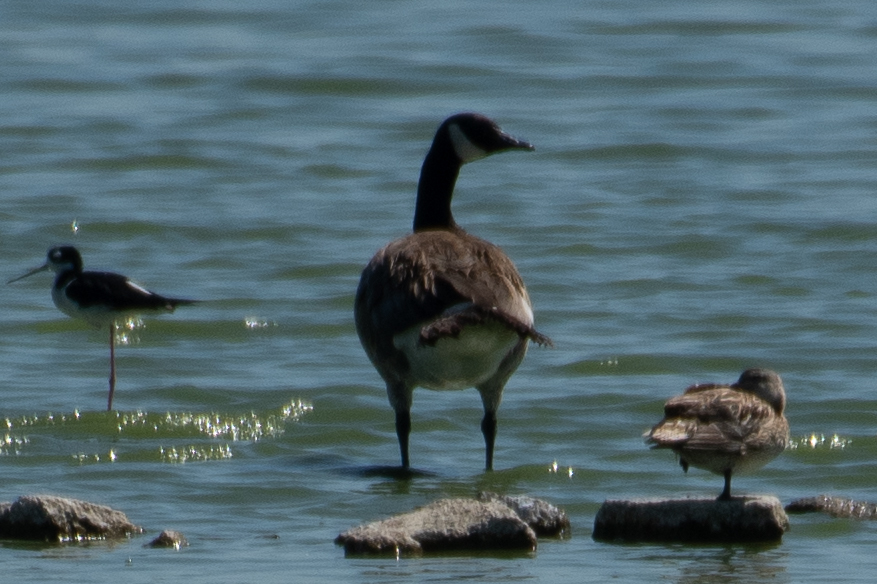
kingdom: Animalia
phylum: Chordata
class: Aves
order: Anseriformes
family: Anatidae
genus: Branta
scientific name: Branta canadensis
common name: Canada goose
